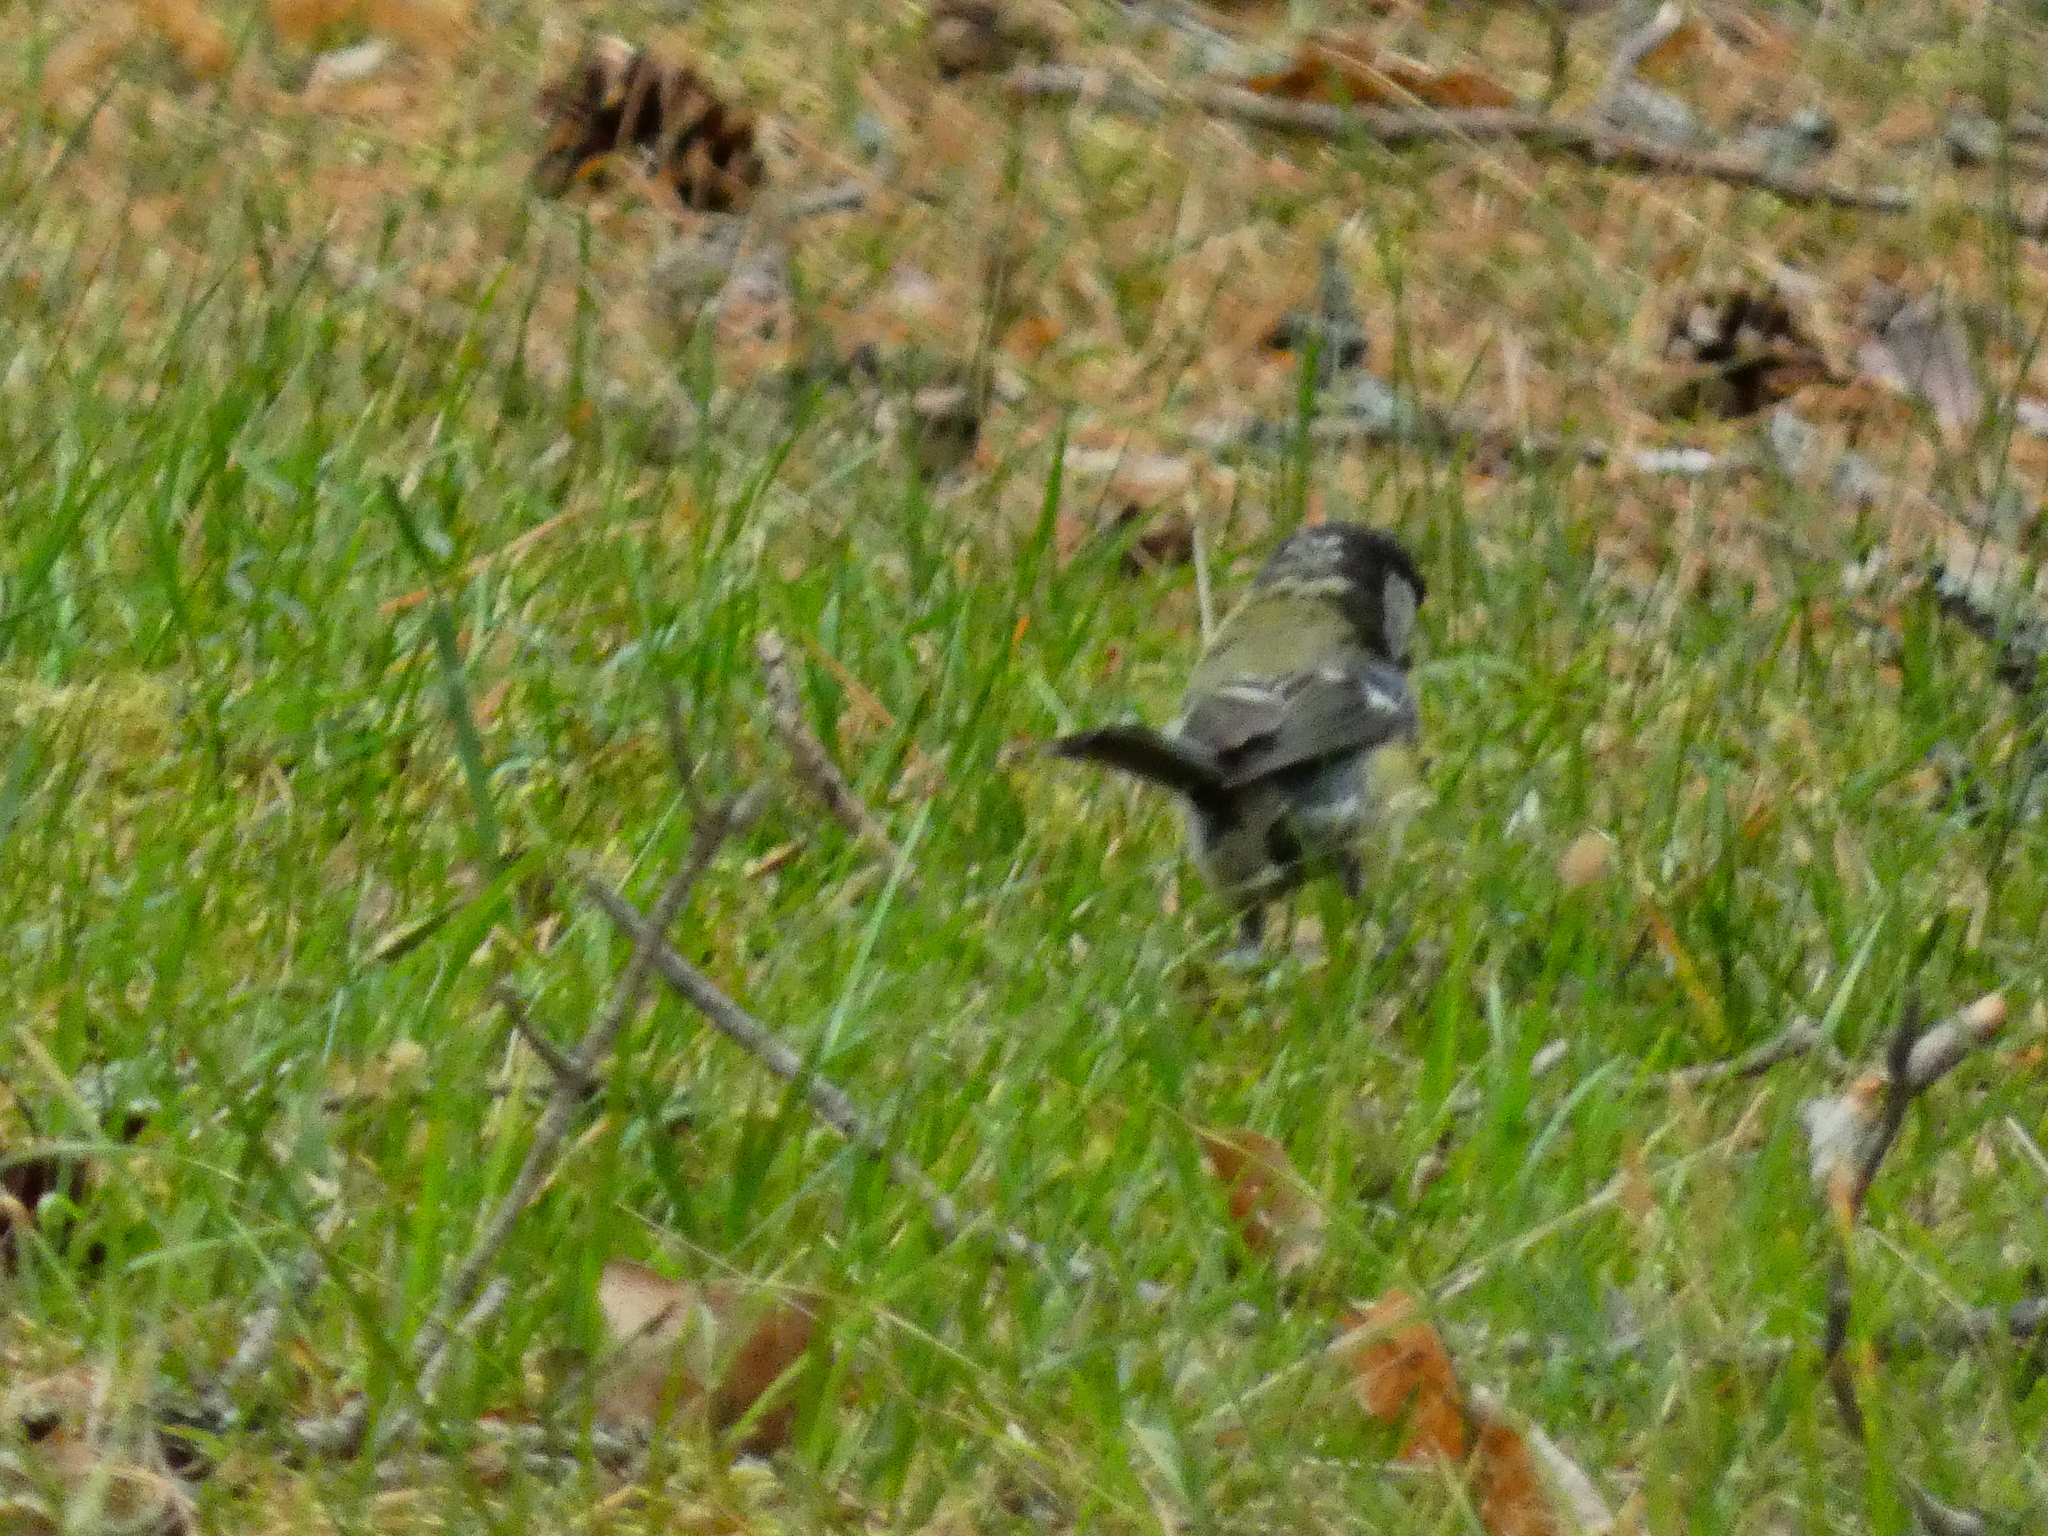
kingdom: Animalia
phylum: Chordata
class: Aves
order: Passeriformes
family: Paridae
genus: Parus
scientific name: Parus major
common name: Great tit
